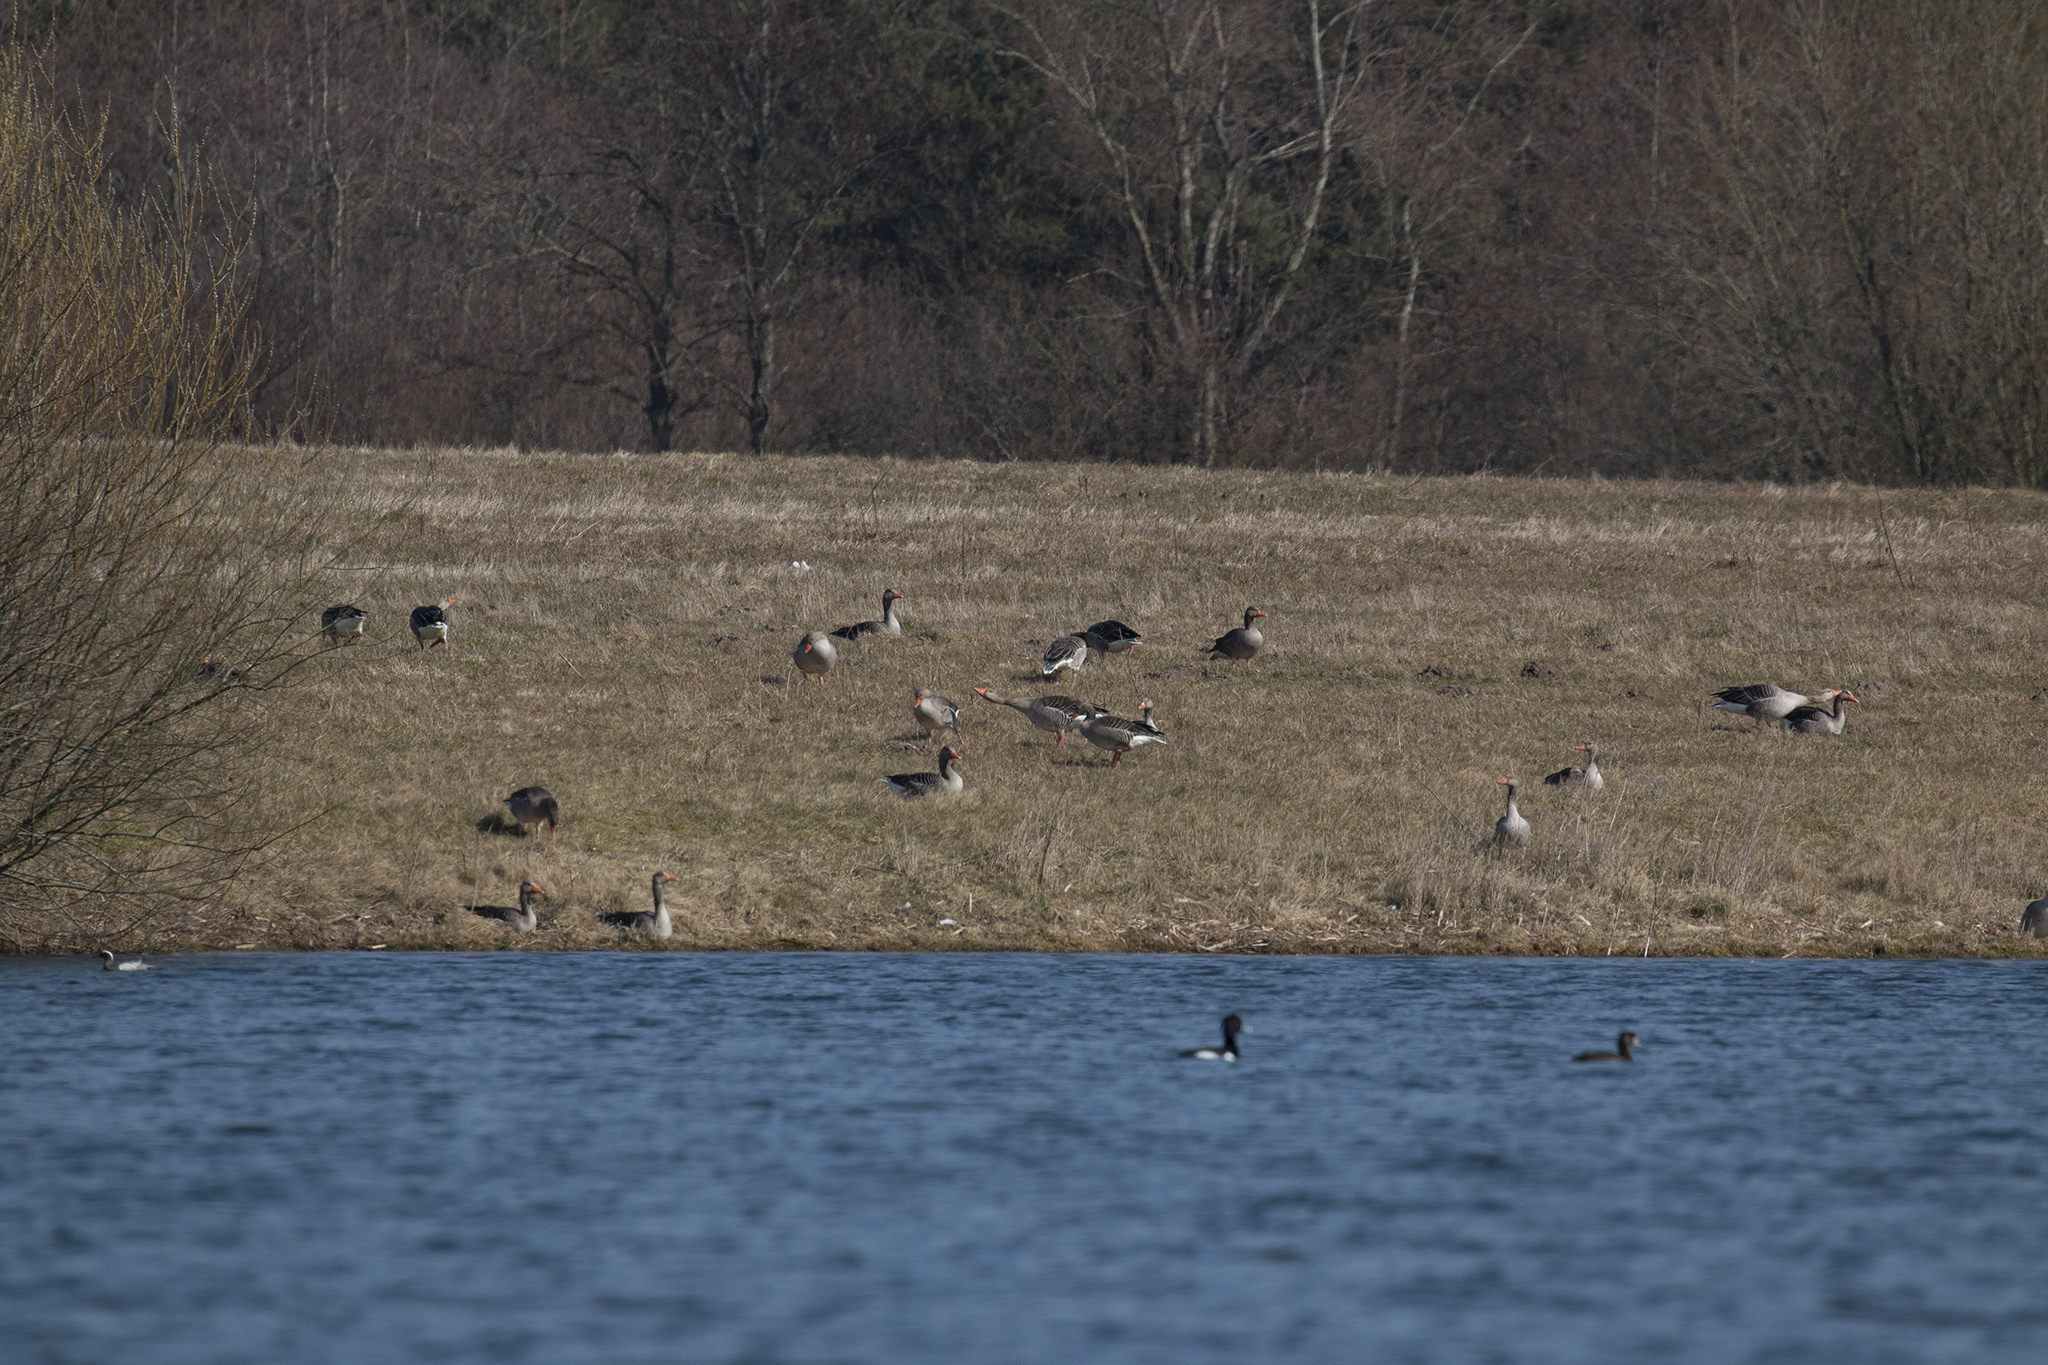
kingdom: Animalia
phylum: Chordata
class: Aves
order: Anseriformes
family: Anatidae
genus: Anser
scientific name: Anser anser
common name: Greylag goose
